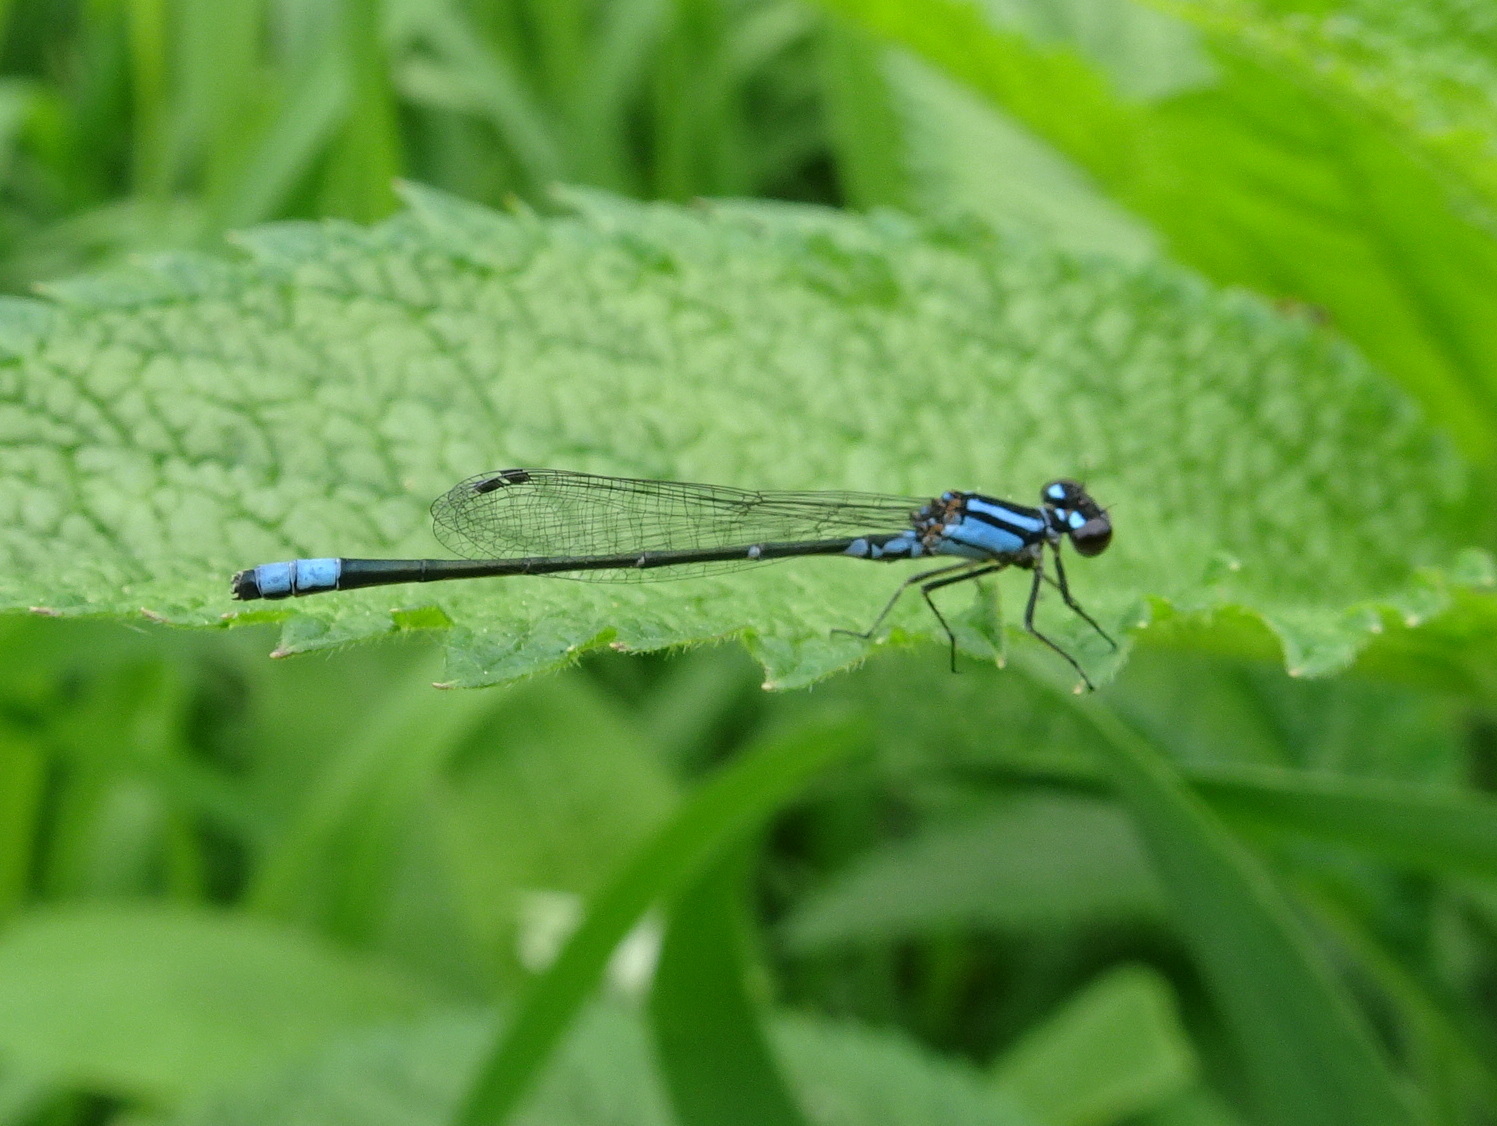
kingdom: Animalia
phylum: Arthropoda
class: Insecta
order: Odonata
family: Coenagrionidae
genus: Enallagma
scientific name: Enallagma geminatum
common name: Skimming bluet
